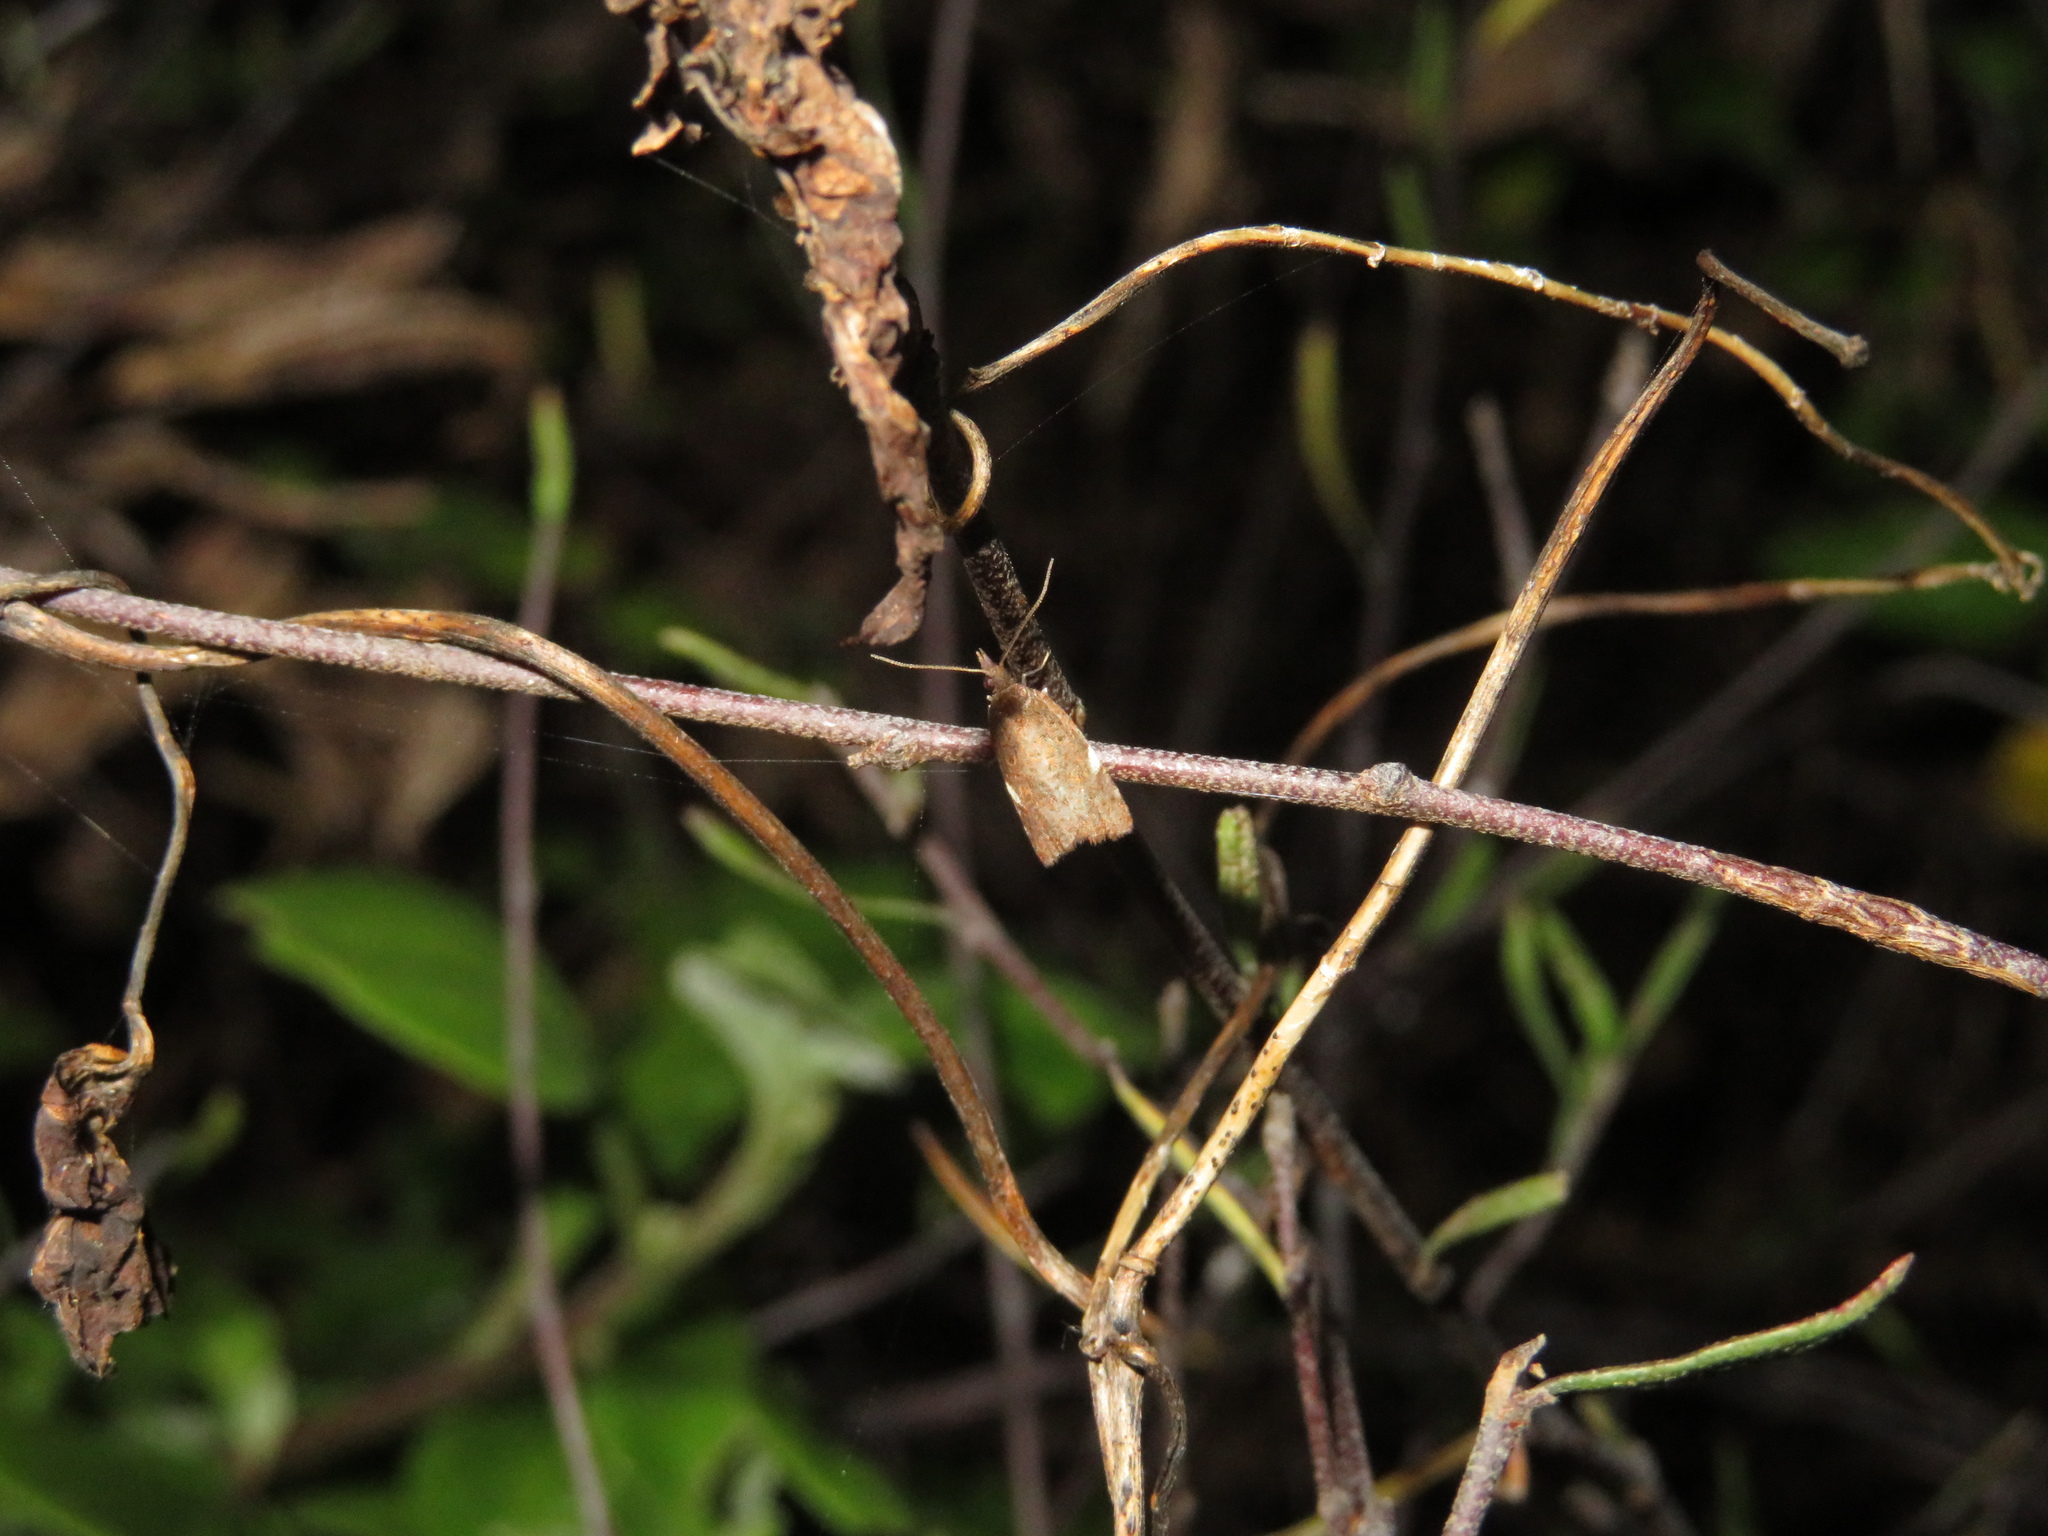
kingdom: Animalia
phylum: Arthropoda
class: Insecta
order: Lepidoptera
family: Tortricidae
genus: Catamacta
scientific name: Catamacta gavisana
